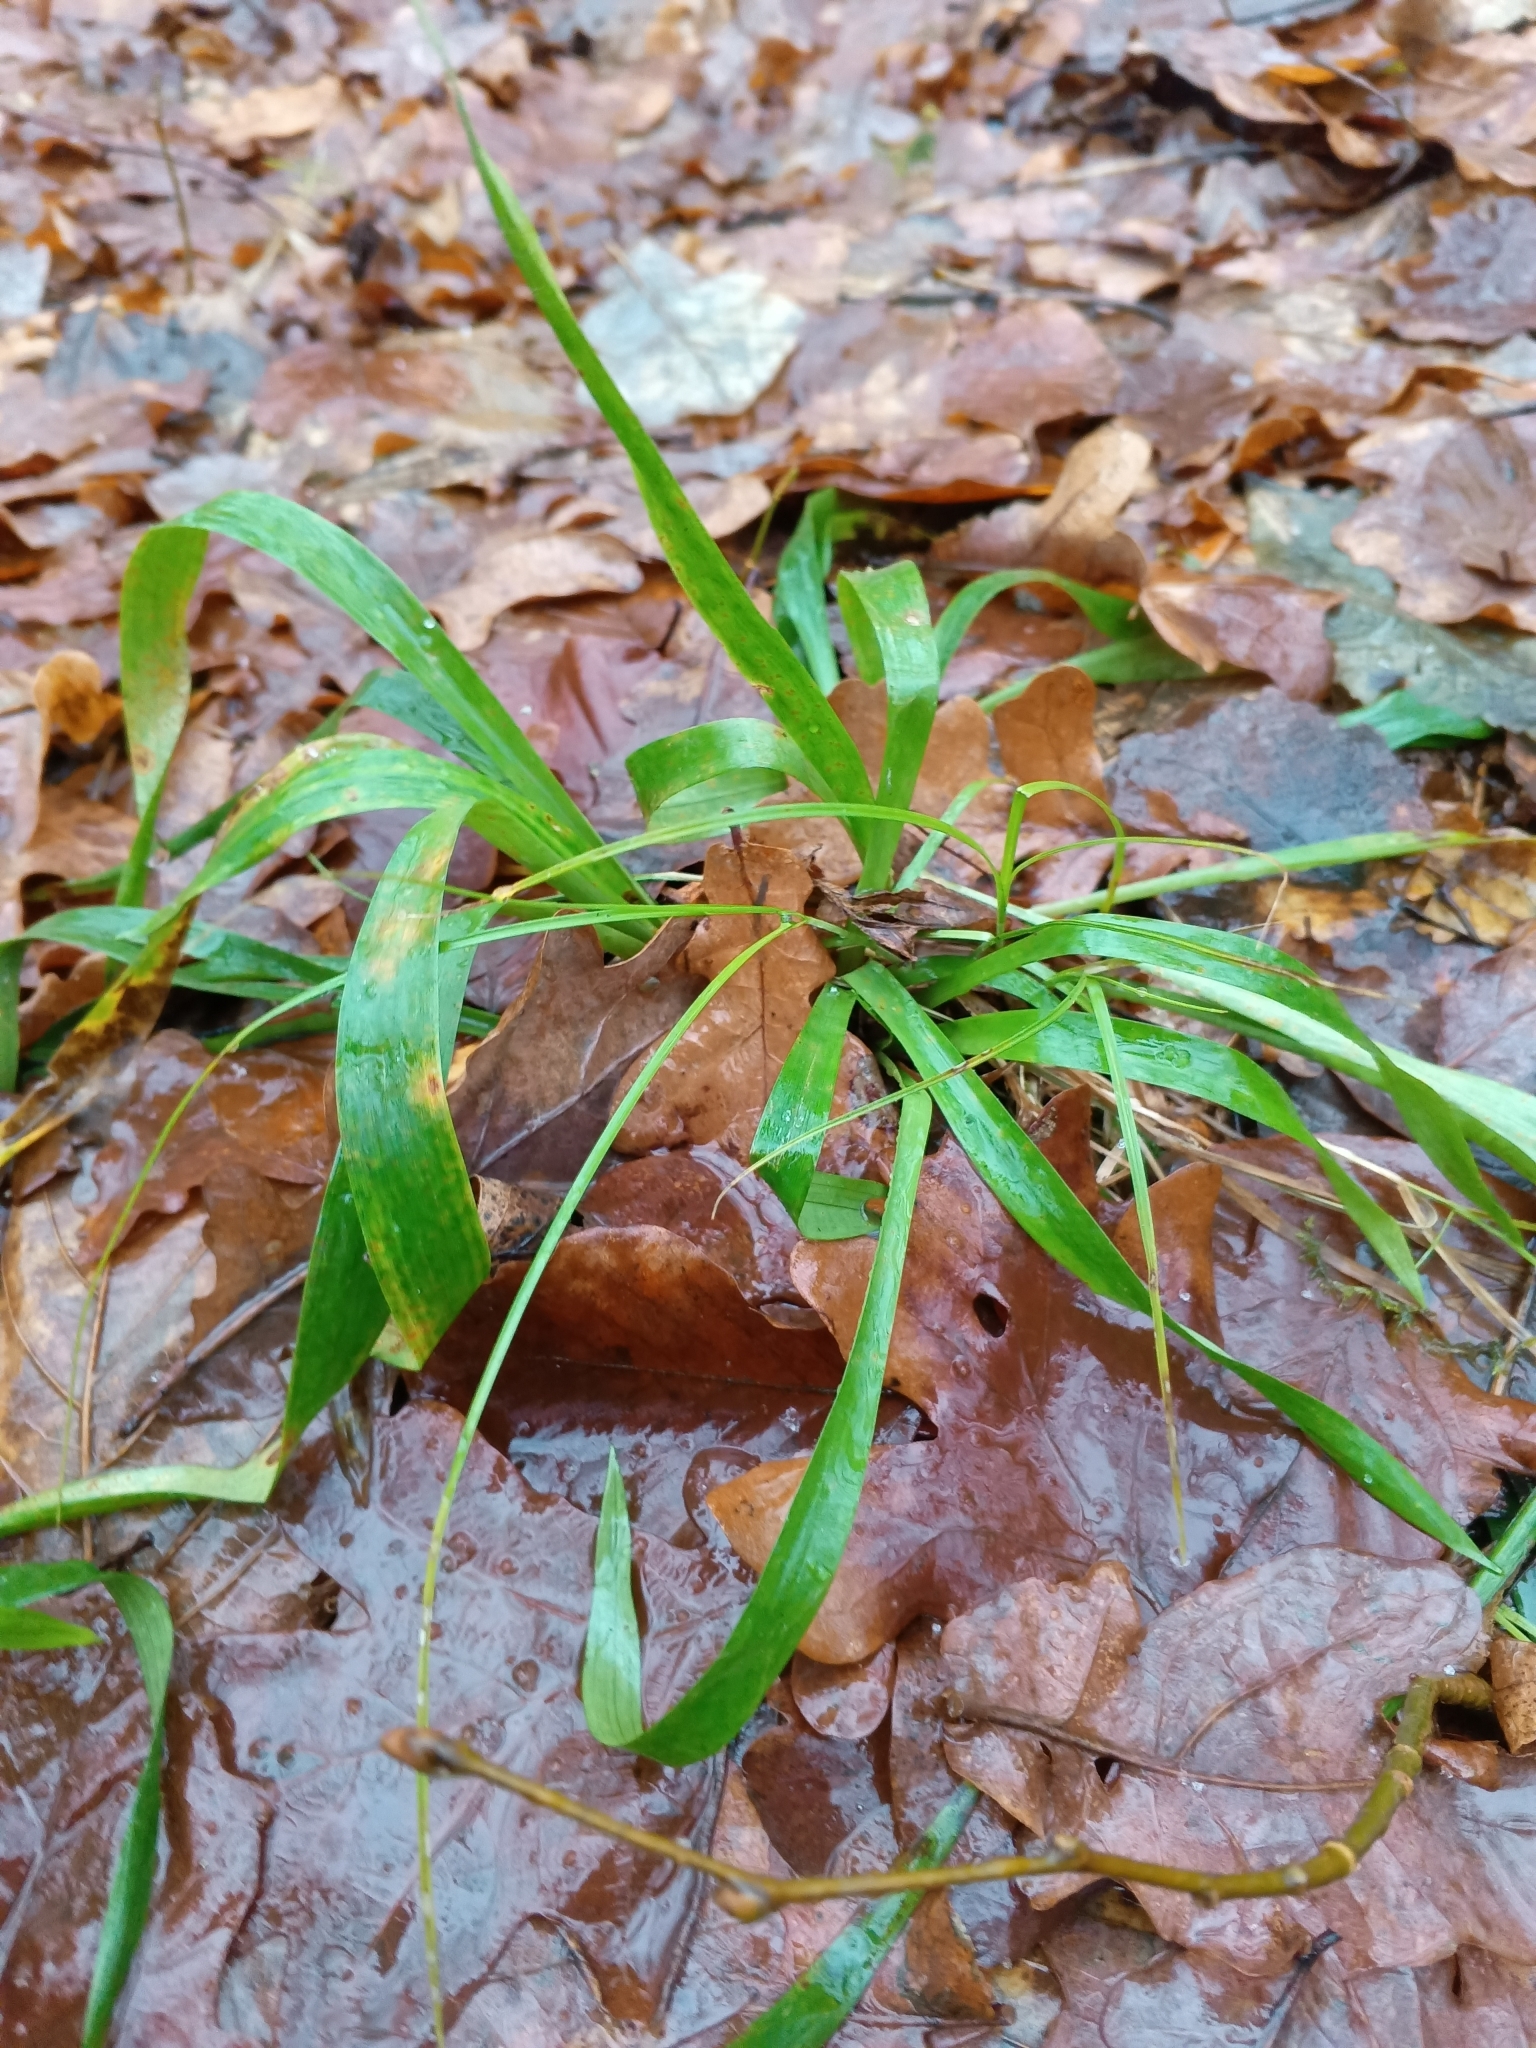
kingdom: Plantae
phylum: Tracheophyta
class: Liliopsida
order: Poales
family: Juncaceae
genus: Luzula
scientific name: Luzula pilosa
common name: Hairy wood-rush
